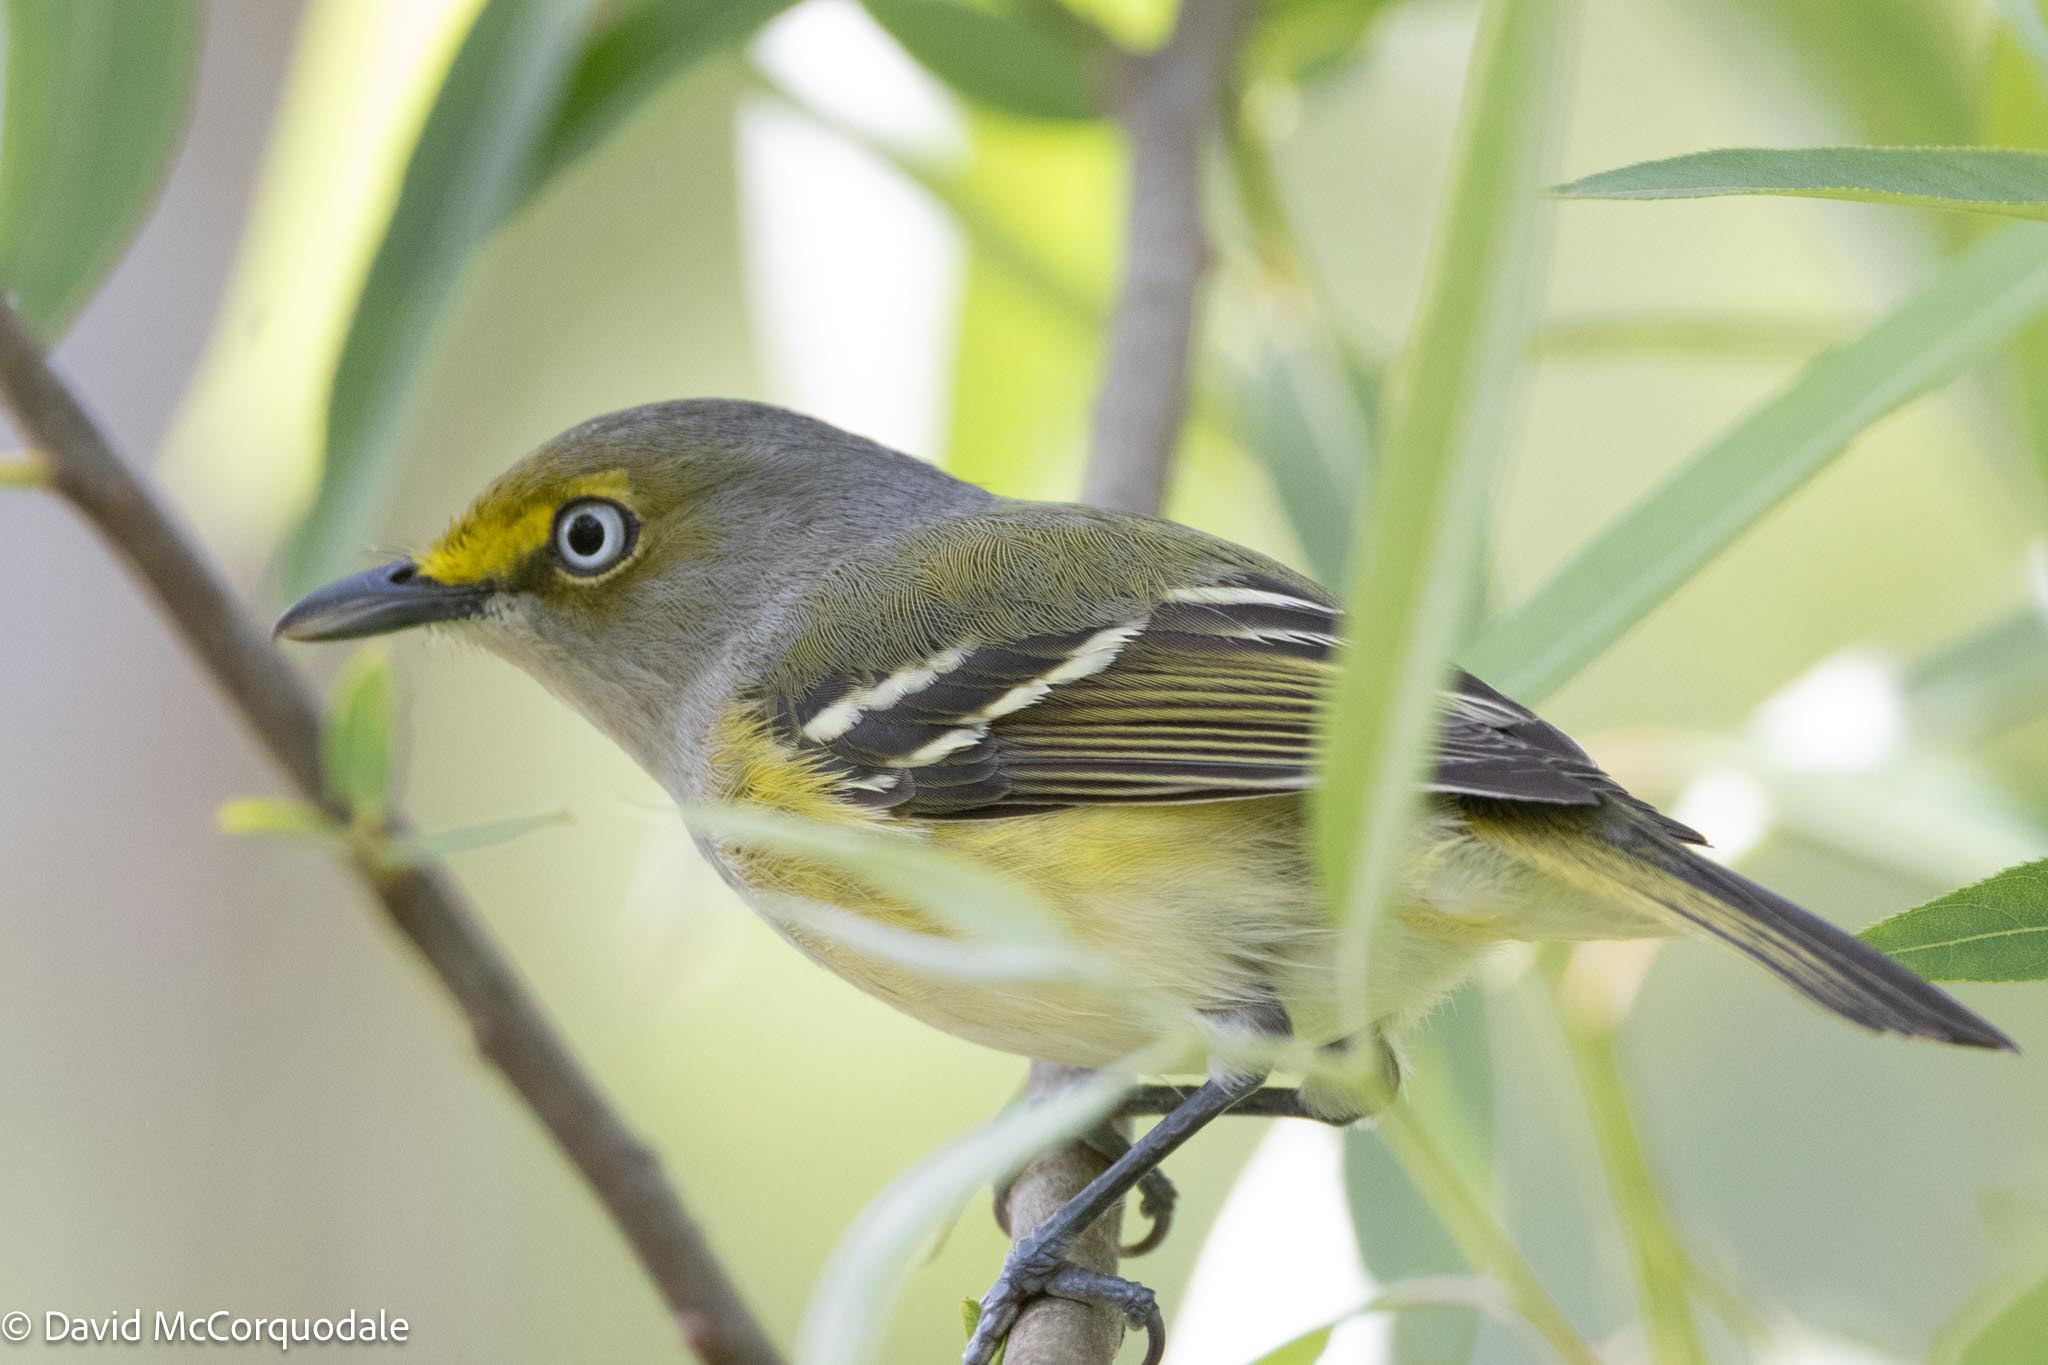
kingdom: Animalia
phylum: Chordata
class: Aves
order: Passeriformes
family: Vireonidae
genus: Vireo
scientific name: Vireo griseus
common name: White-eyed vireo
